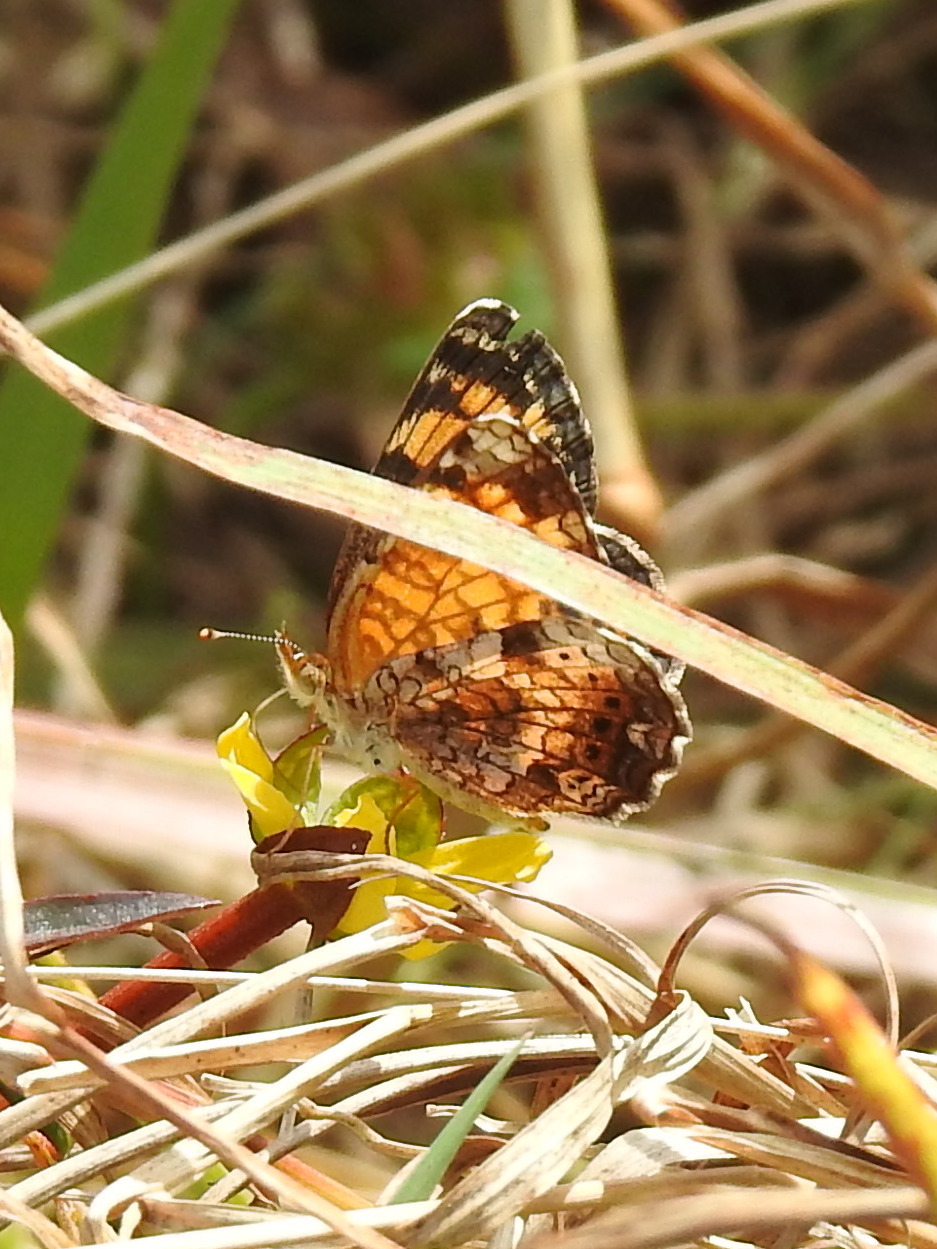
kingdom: Animalia
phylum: Arthropoda
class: Insecta
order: Lepidoptera
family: Nymphalidae
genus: Phyciodes
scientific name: Phyciodes tharos
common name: Pearl crescent
